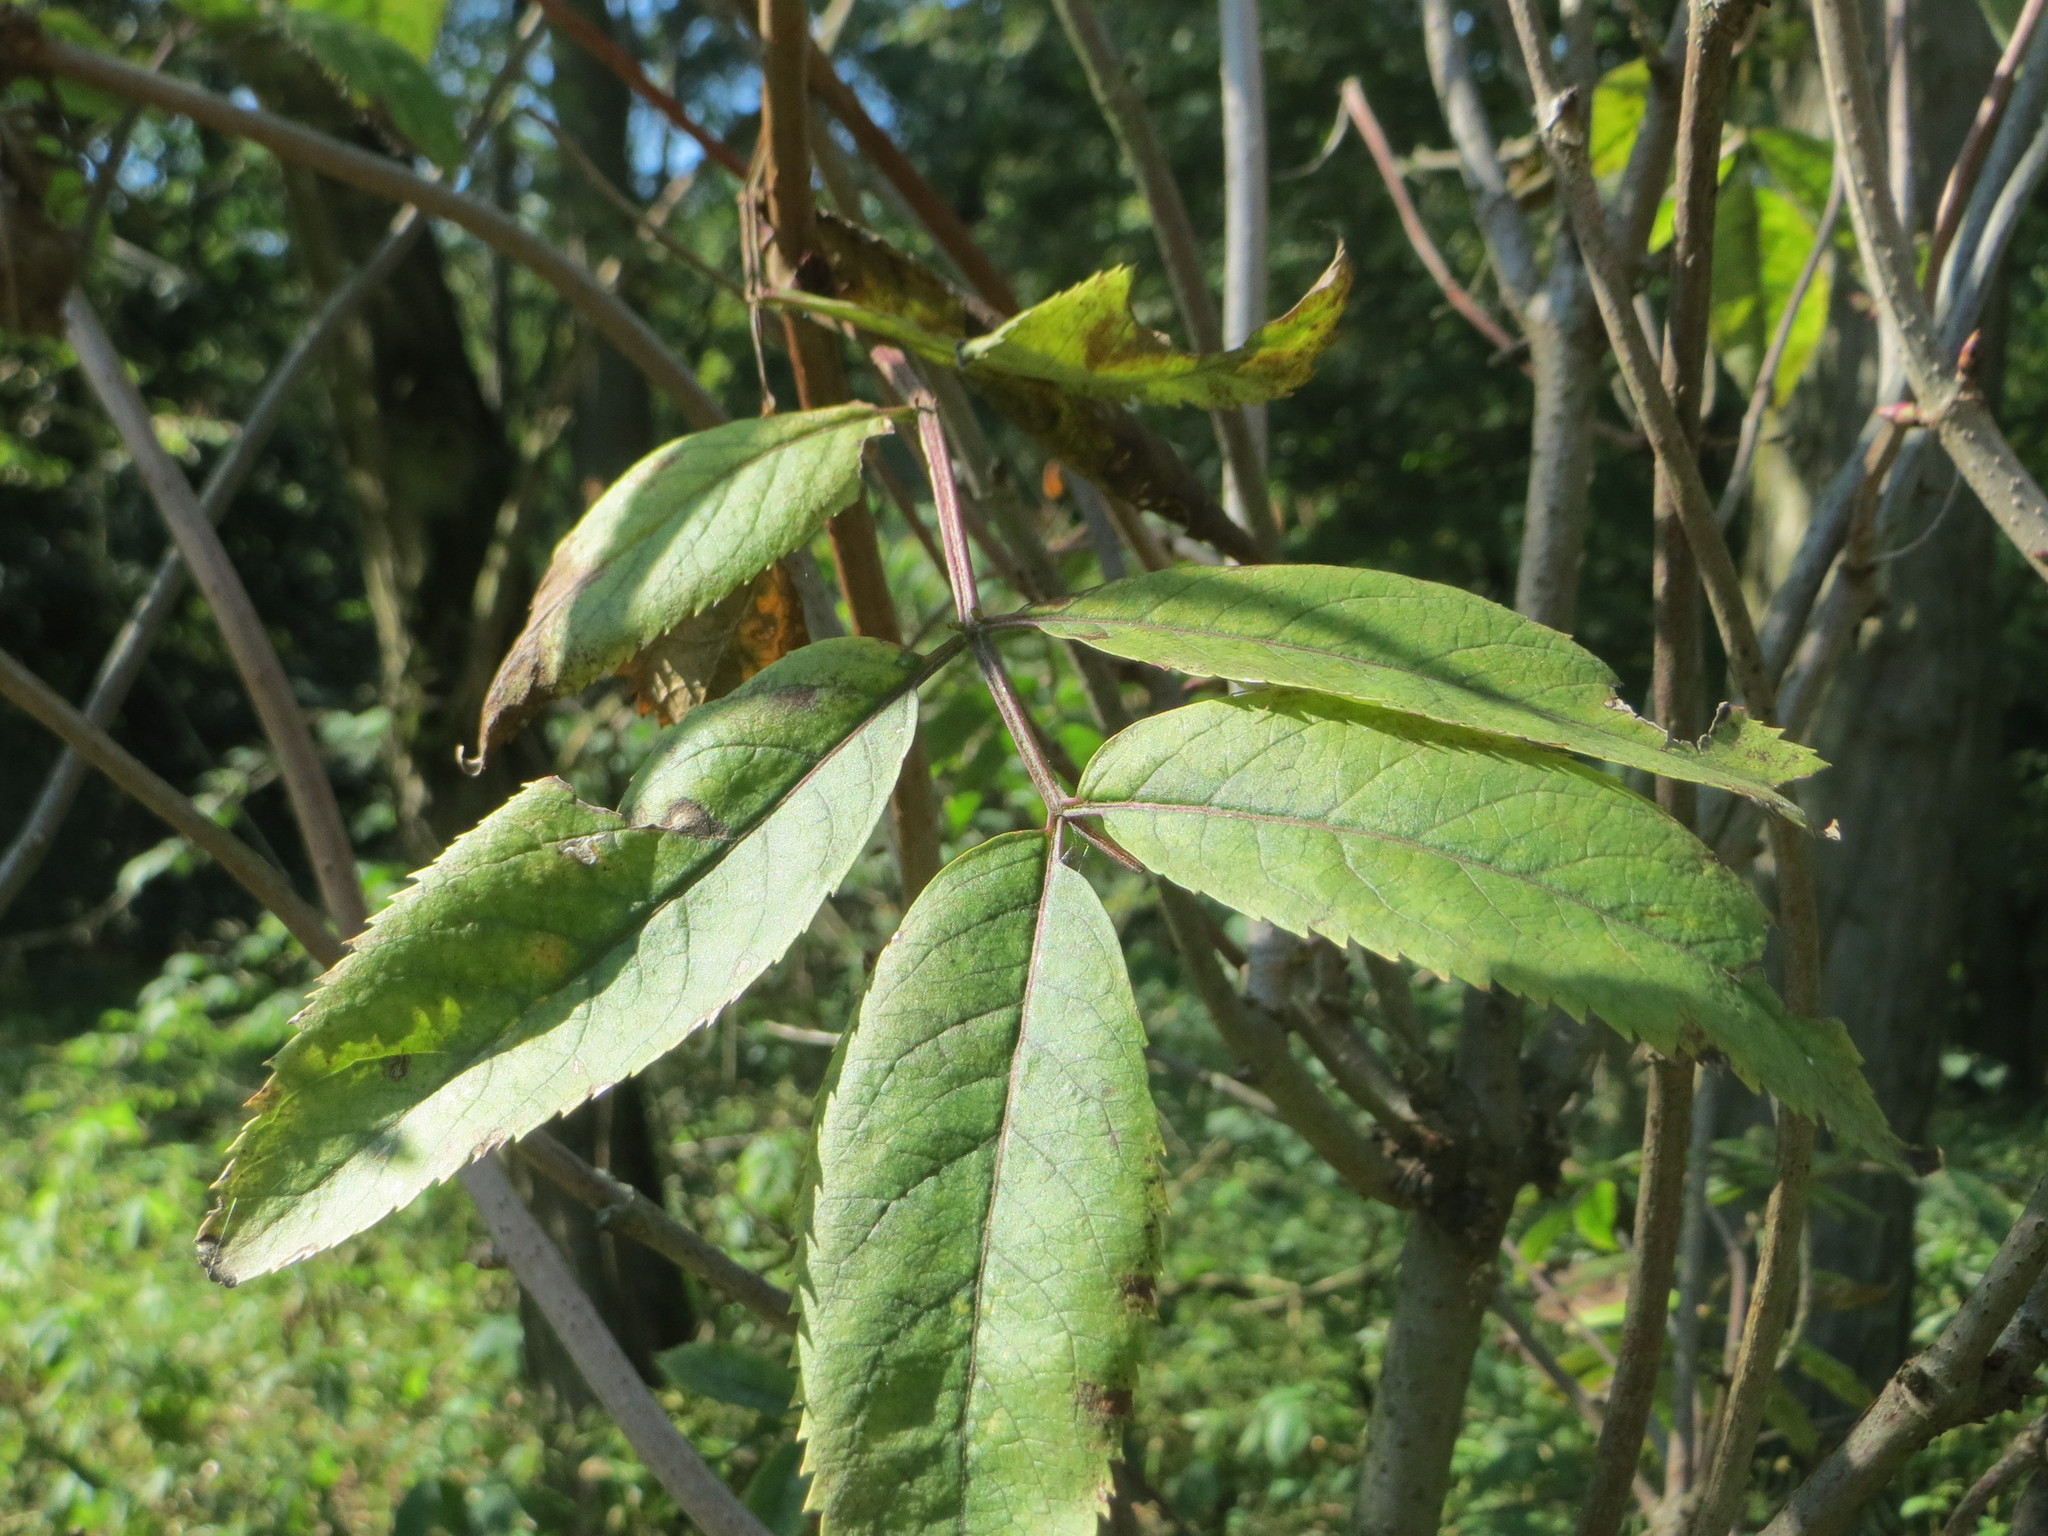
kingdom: Plantae
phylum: Tracheophyta
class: Magnoliopsida
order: Dipsacales
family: Viburnaceae
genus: Sambucus
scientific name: Sambucus racemosa
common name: Red-berried elder
